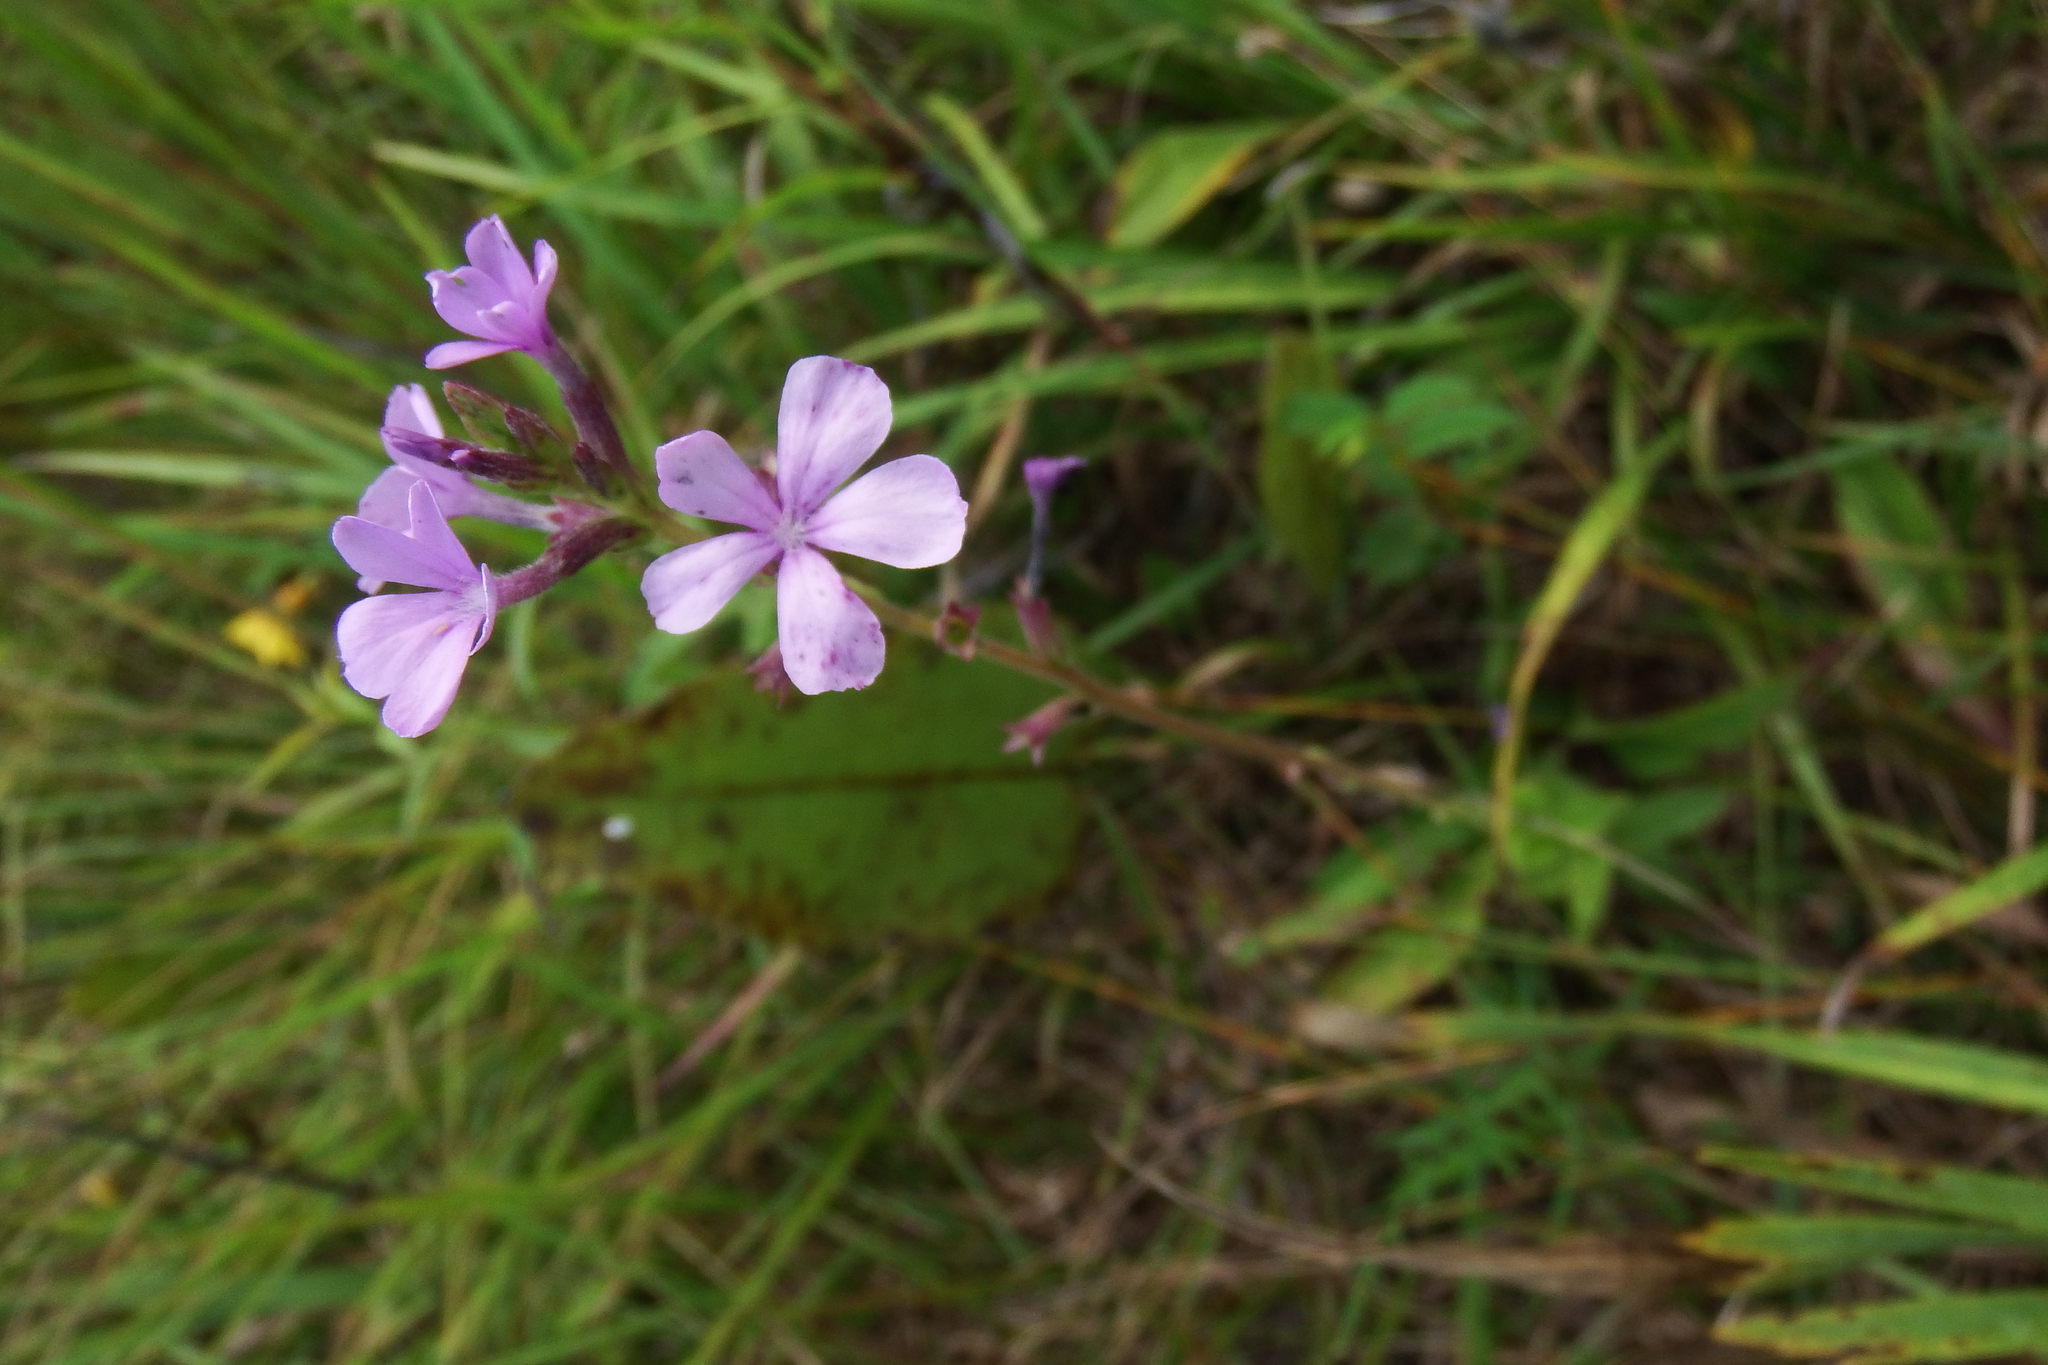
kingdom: Plantae
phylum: Tracheophyta
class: Magnoliopsida
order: Lamiales
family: Orobanchaceae
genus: Buchnera
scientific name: Buchnera americana
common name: American bluehearts
